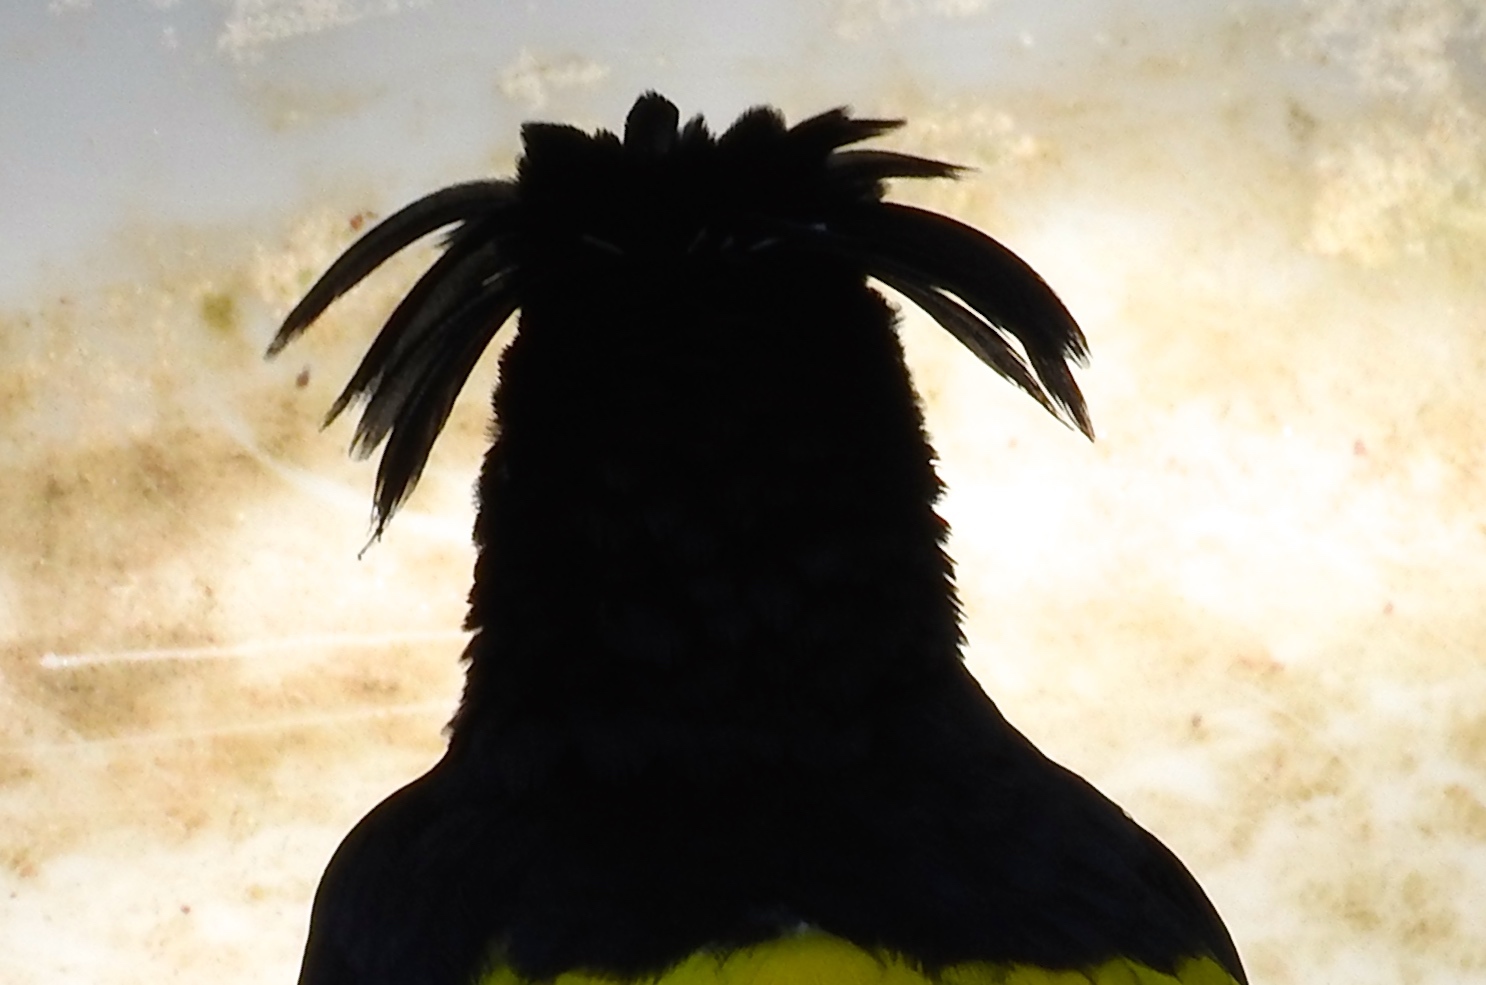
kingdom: Animalia
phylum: Chordata
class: Aves
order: Passeriformes
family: Icteridae
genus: Cacicus
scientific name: Cacicus melanicterus
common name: Yellow-winged cacique
